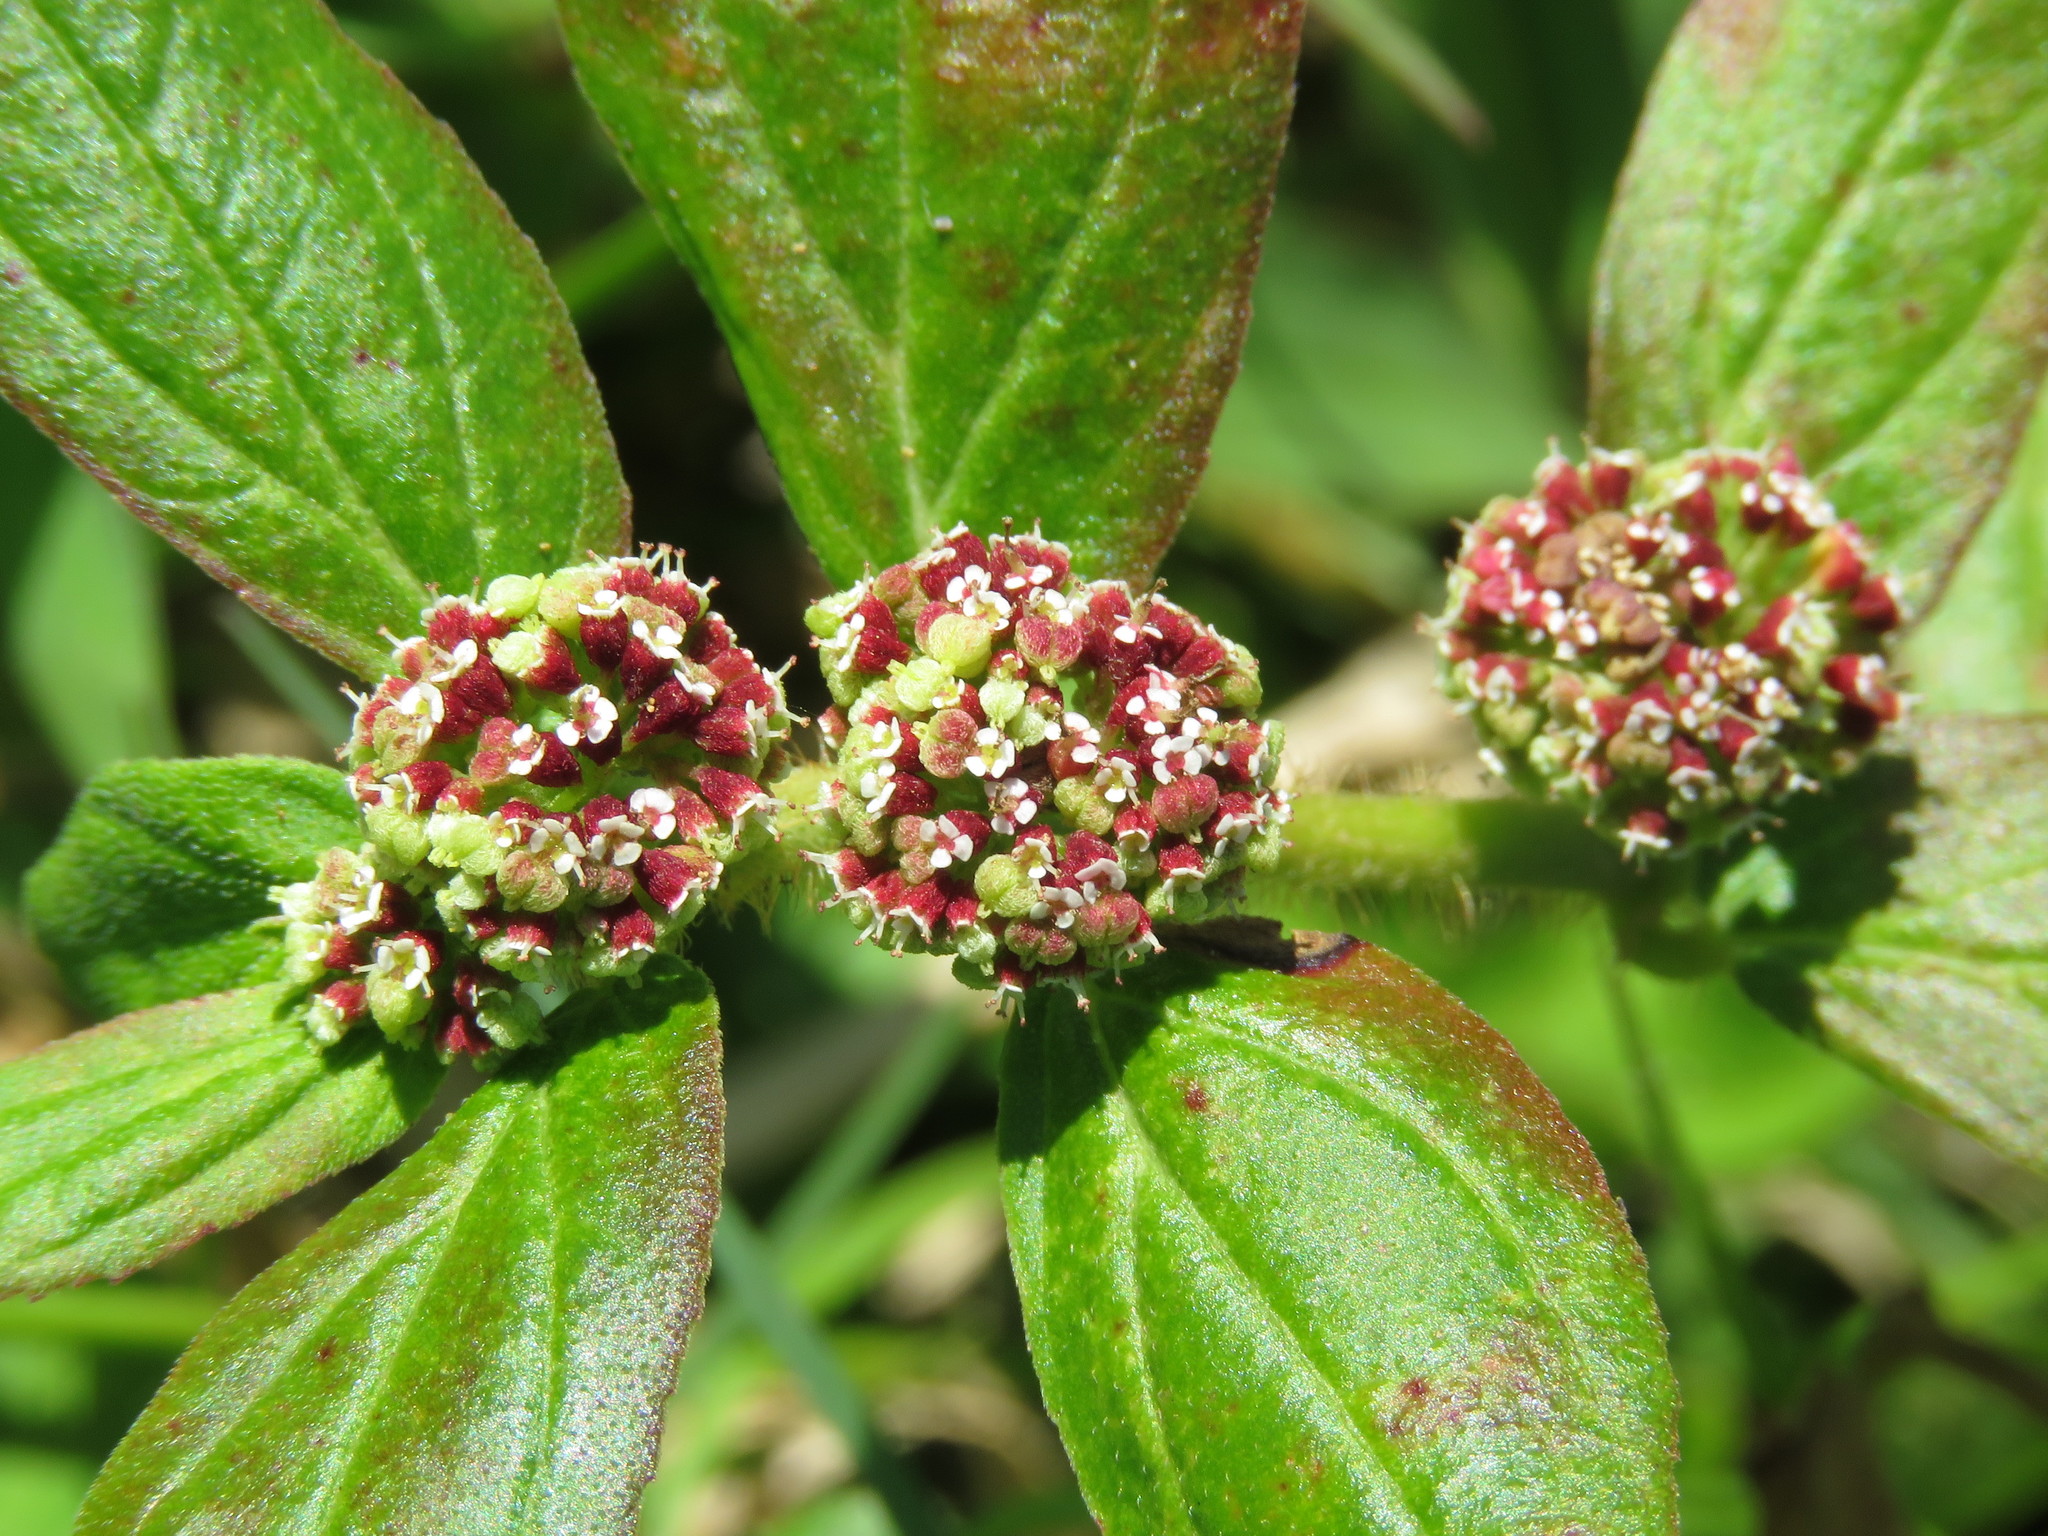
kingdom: Plantae
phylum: Tracheophyta
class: Magnoliopsida
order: Malpighiales
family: Euphorbiaceae
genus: Euphorbia
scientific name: Euphorbia hirta
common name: Pillpod sandmat
